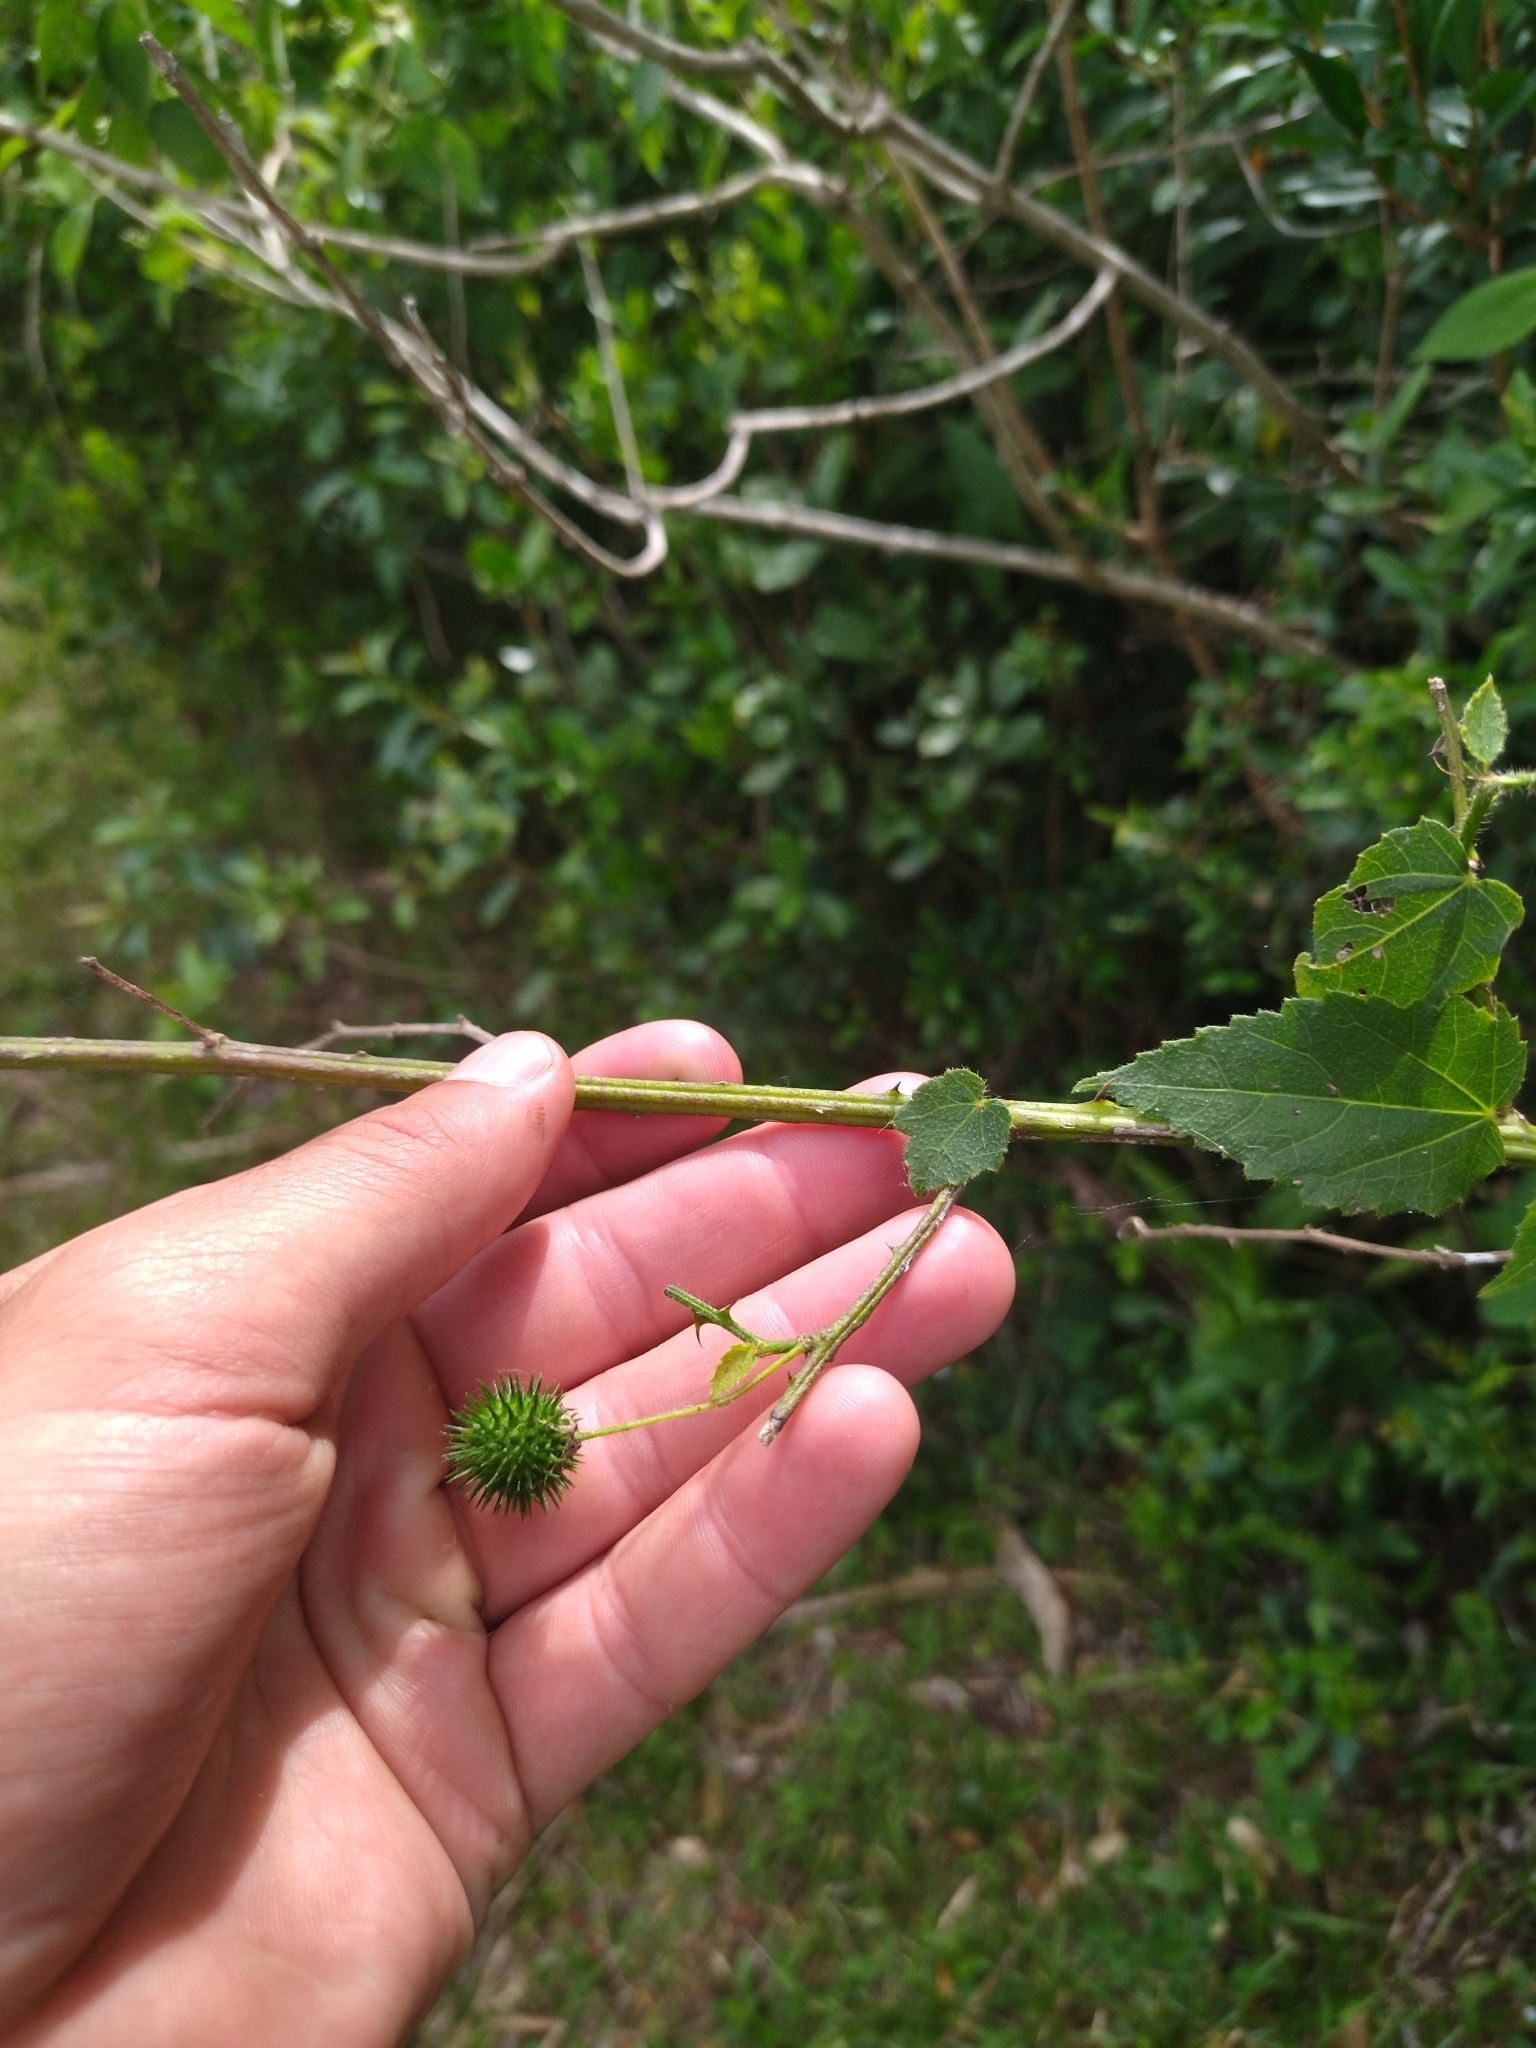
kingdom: Plantae
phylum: Tracheophyta
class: Magnoliopsida
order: Malvales
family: Malvaceae
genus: Byttneria
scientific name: Byttneria urticifolia
